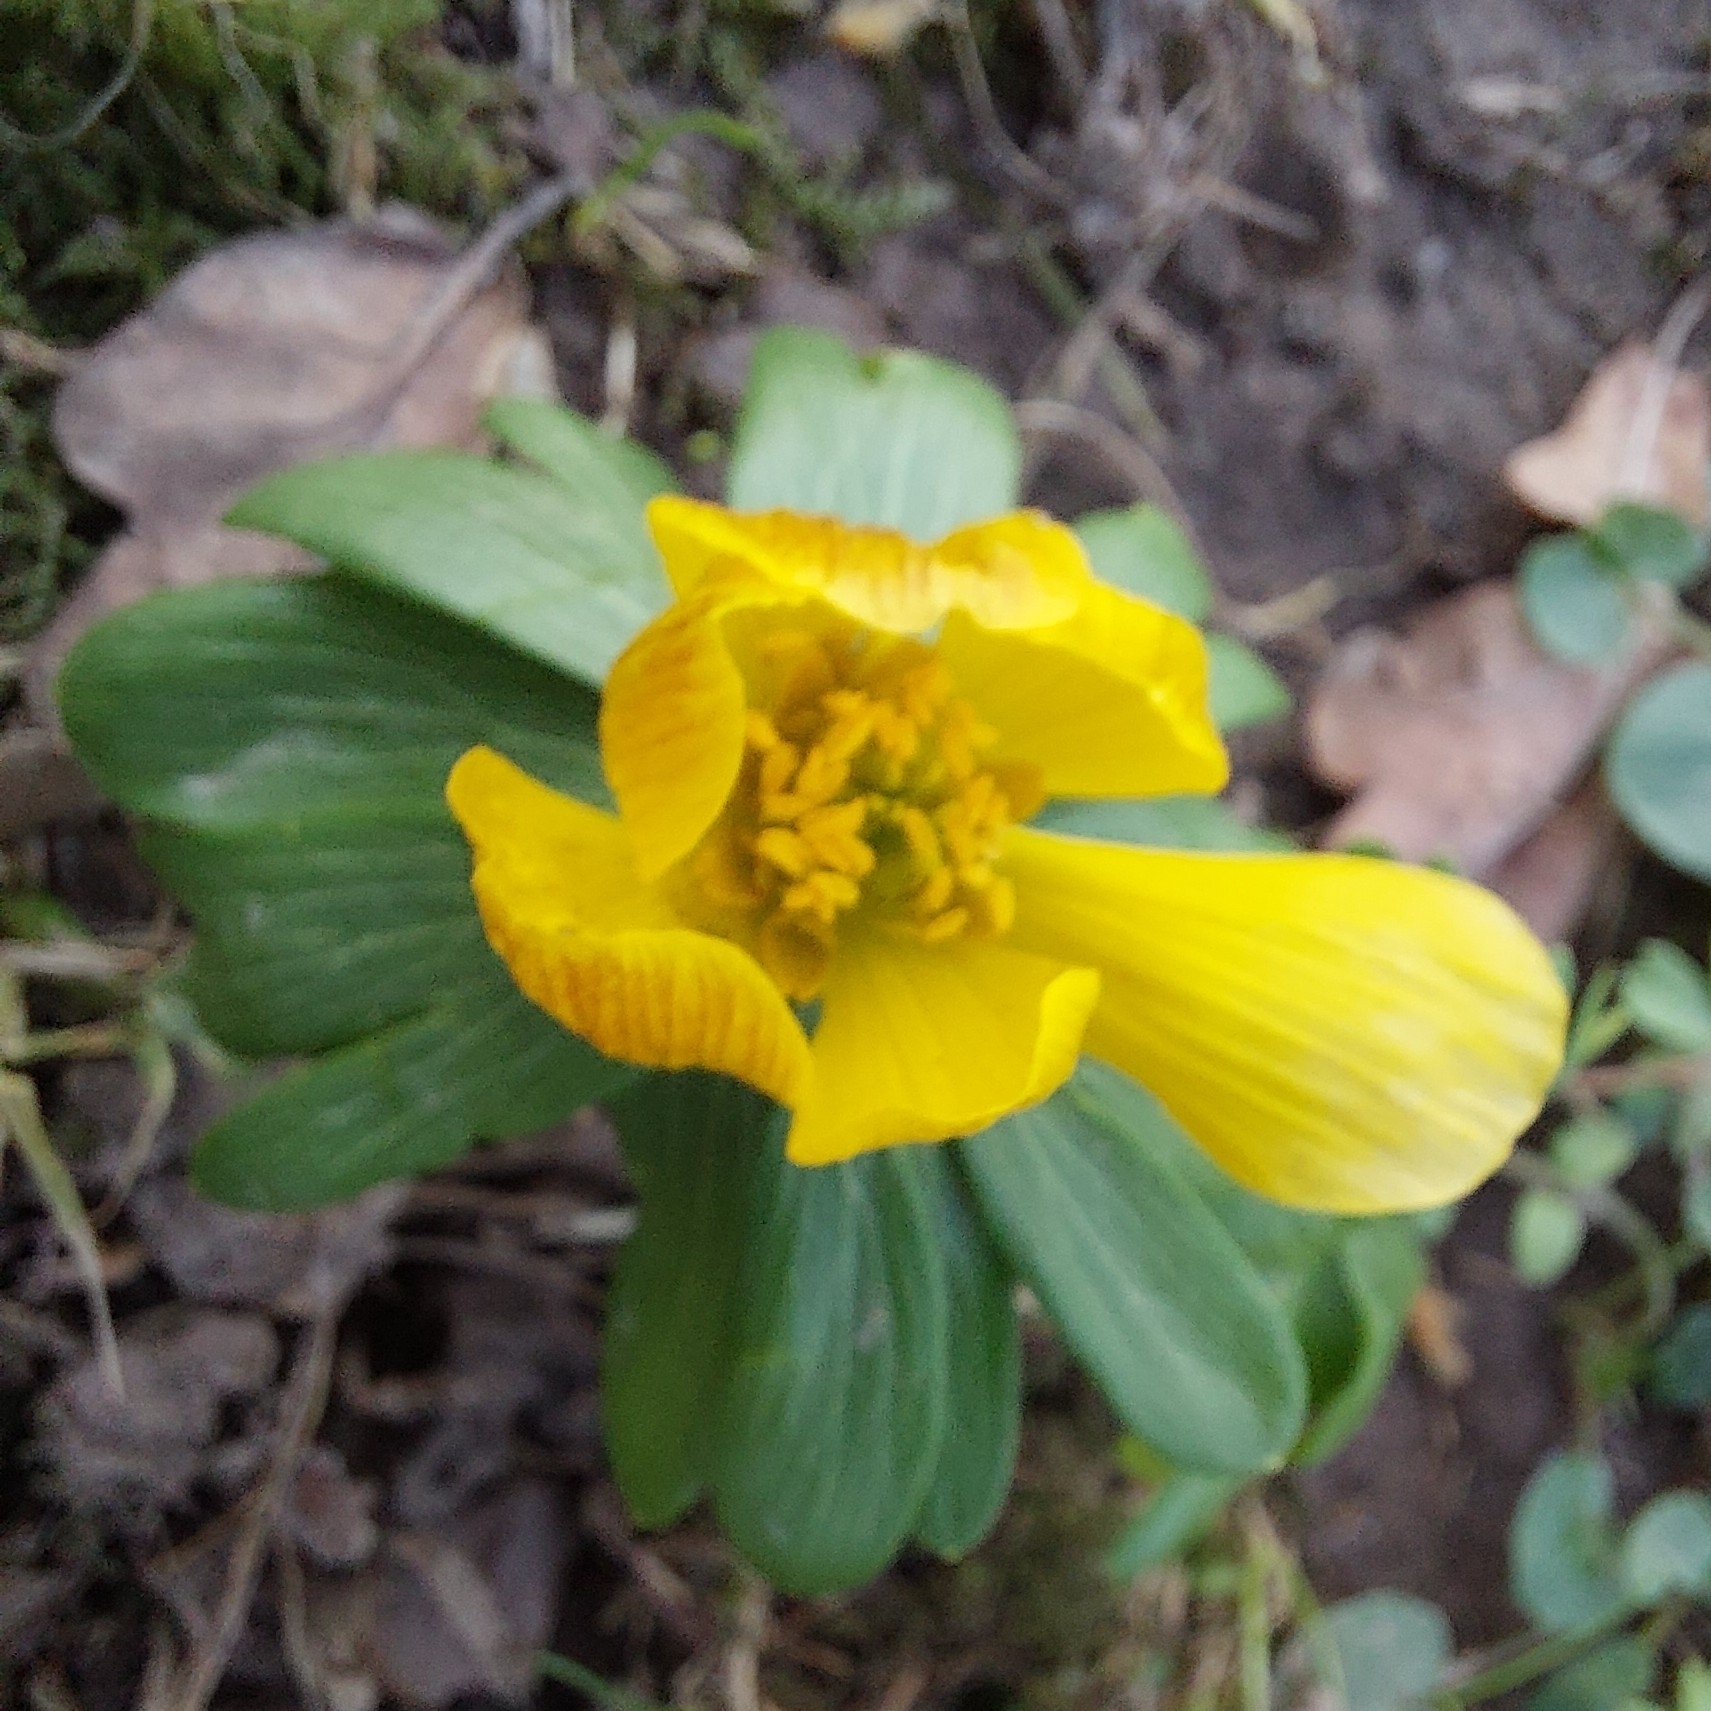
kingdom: Plantae
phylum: Tracheophyta
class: Magnoliopsida
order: Ranunculales
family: Ranunculaceae
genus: Eranthis
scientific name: Eranthis hyemalis
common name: Winter aconite
